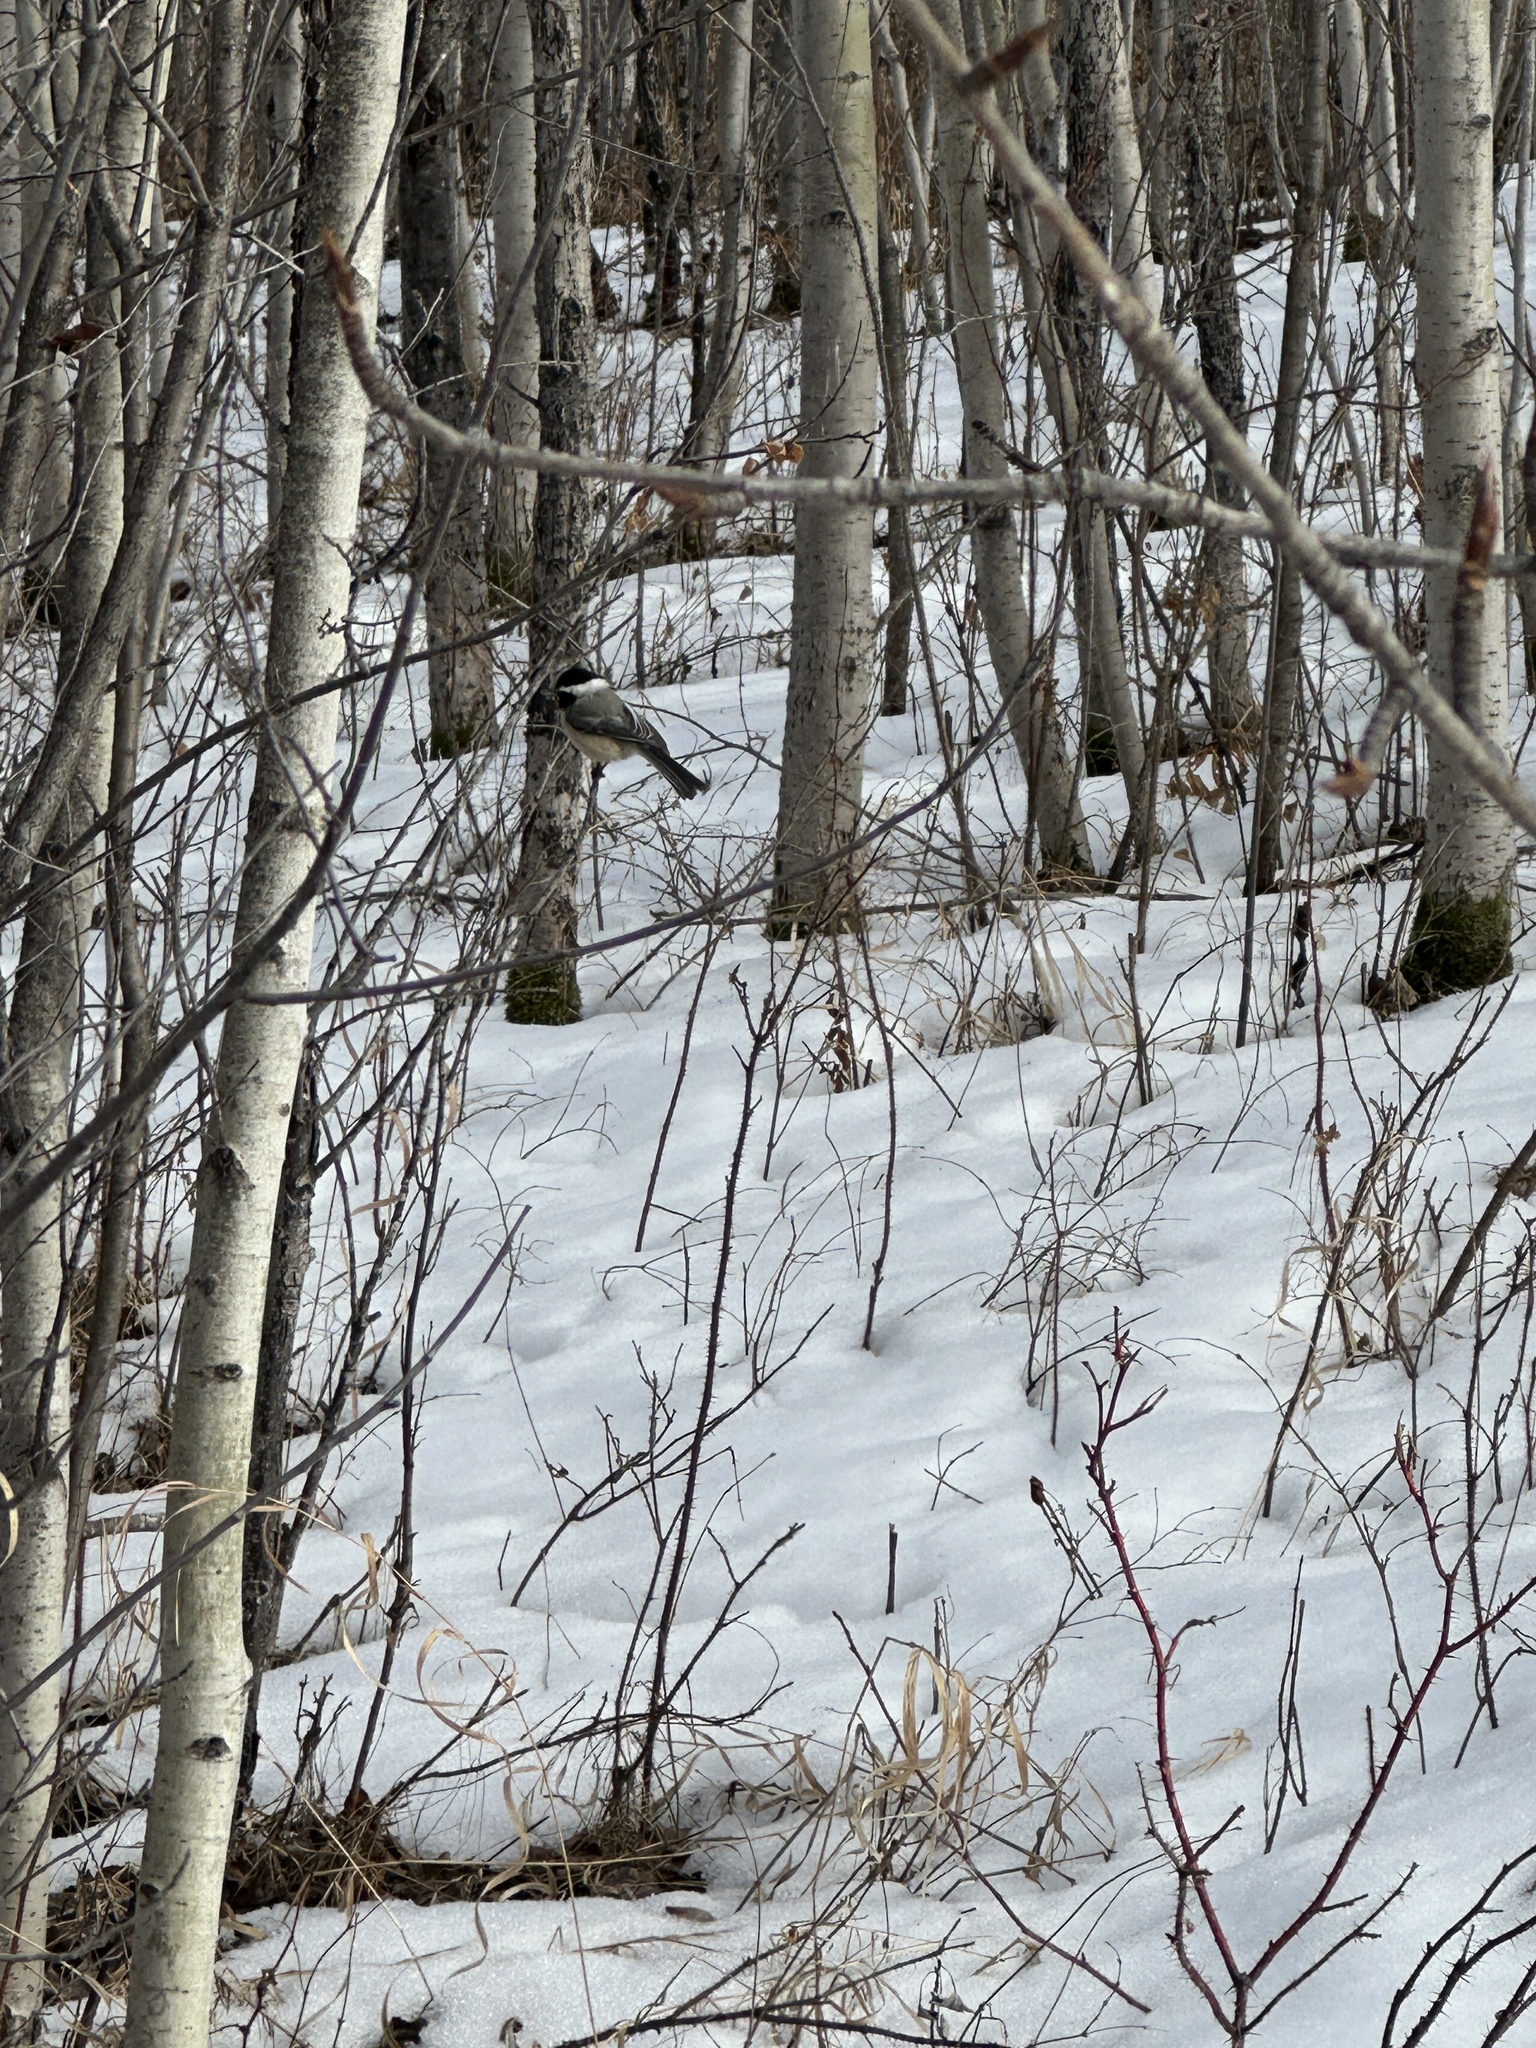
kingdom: Animalia
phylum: Chordata
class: Aves
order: Passeriformes
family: Paridae
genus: Poecile
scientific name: Poecile atricapillus
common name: Black-capped chickadee
